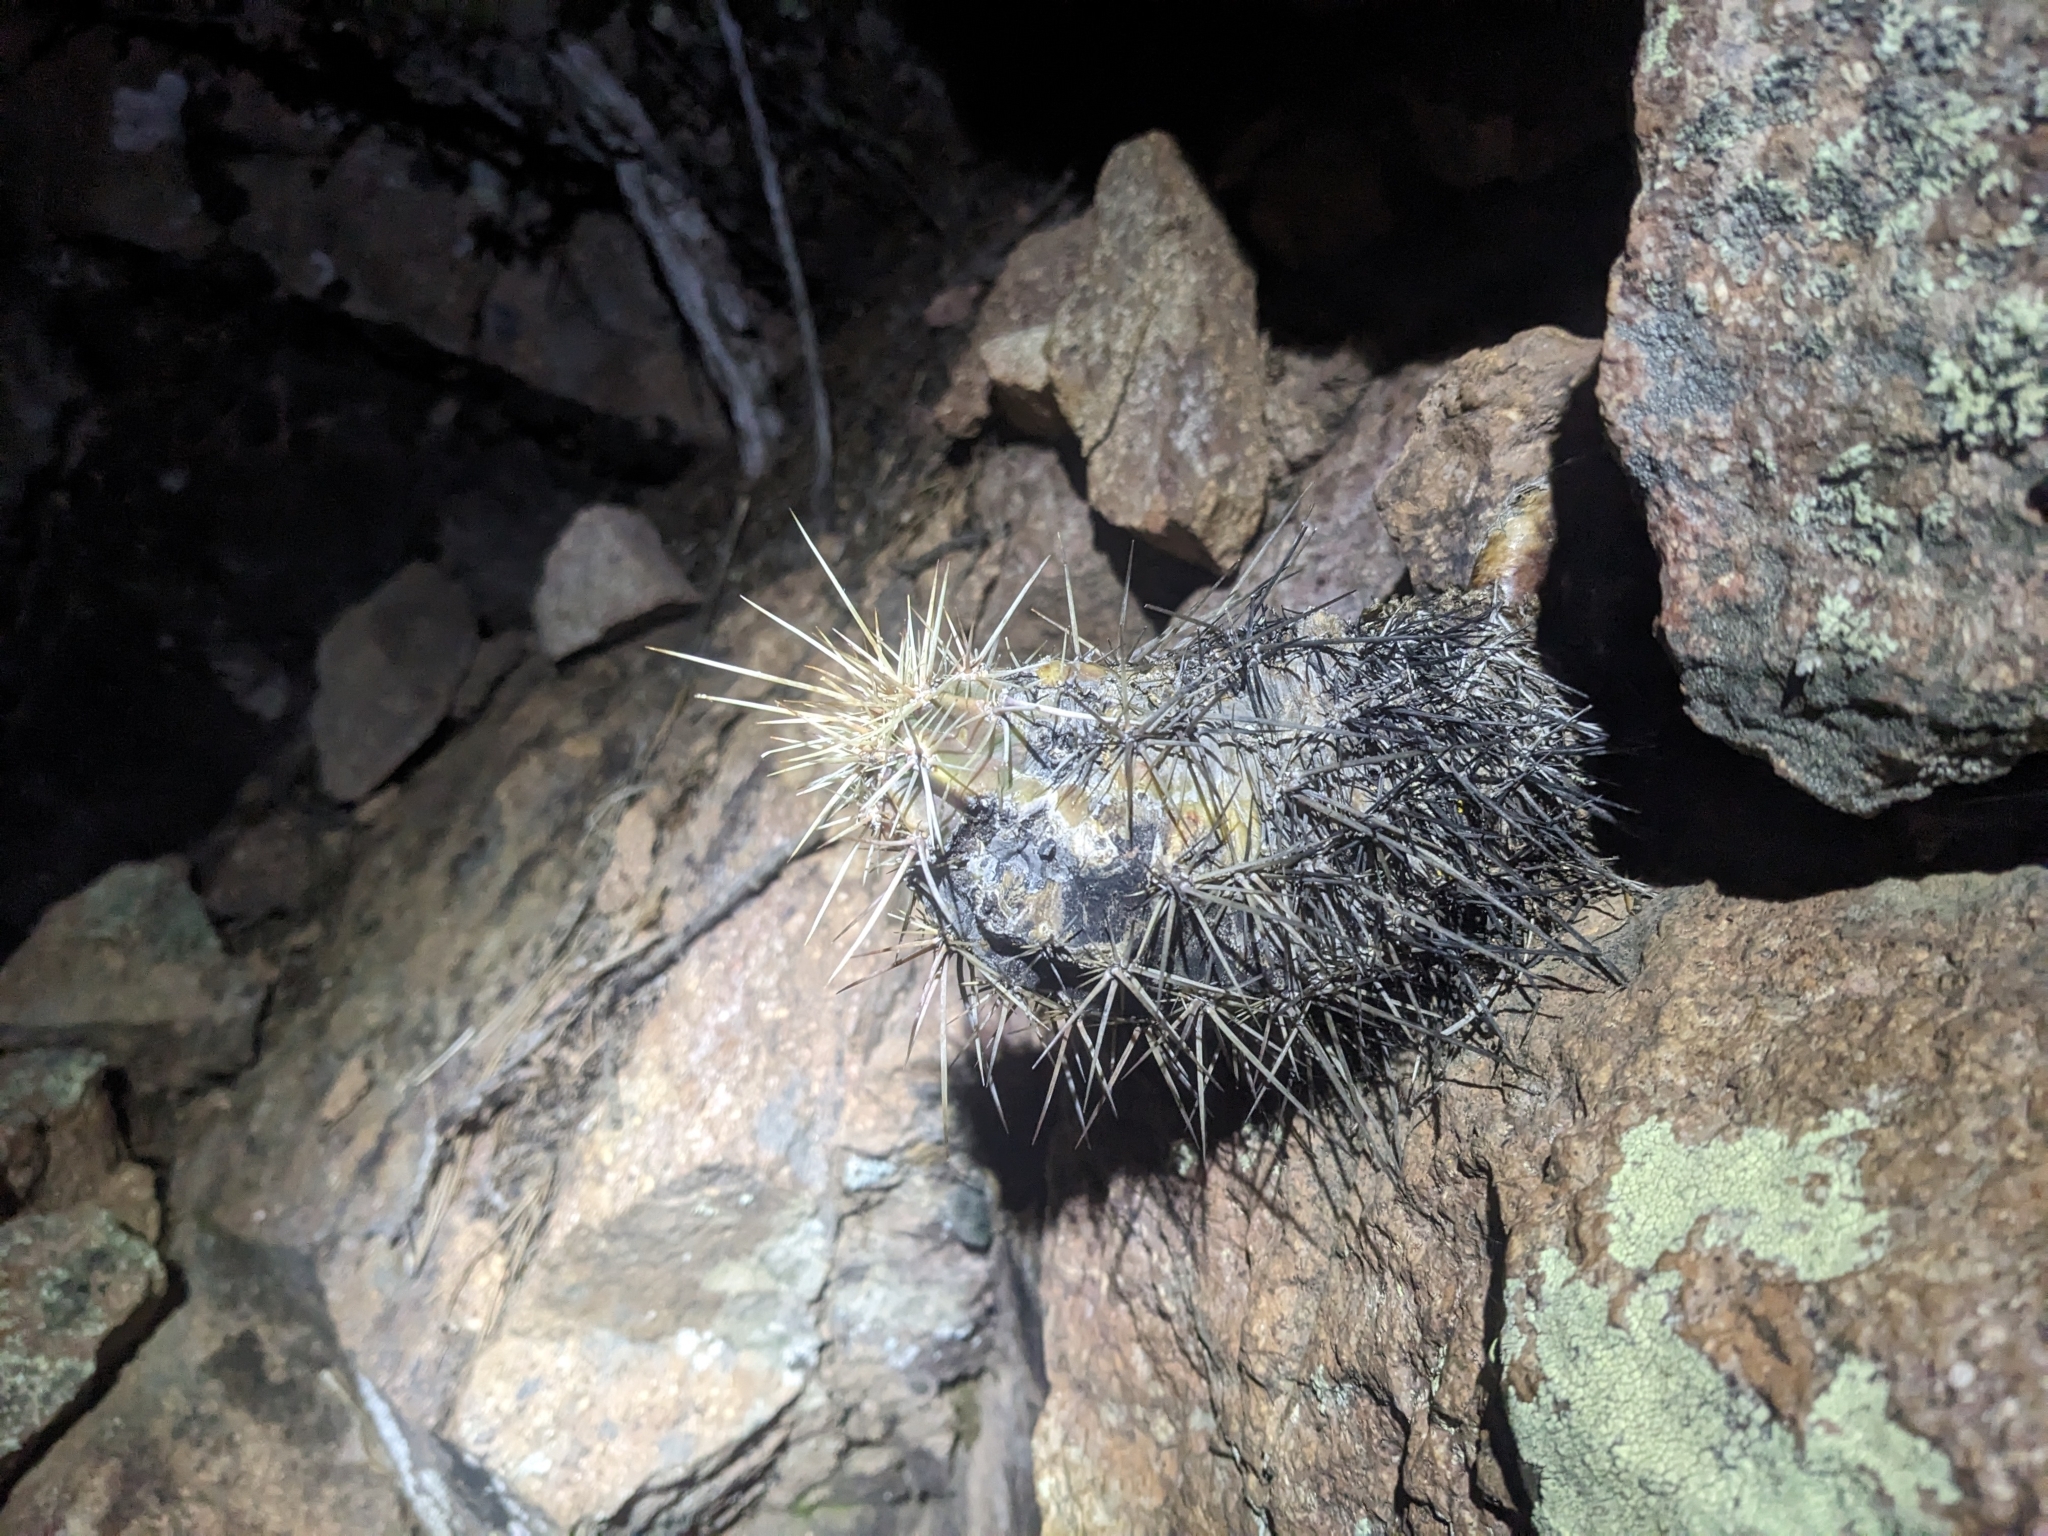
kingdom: Plantae
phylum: Tracheophyta
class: Magnoliopsida
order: Caryophyllales
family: Cactaceae
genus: Echinocereus
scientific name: Echinocereus arizonicus
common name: Arizona hedgehog cactus
